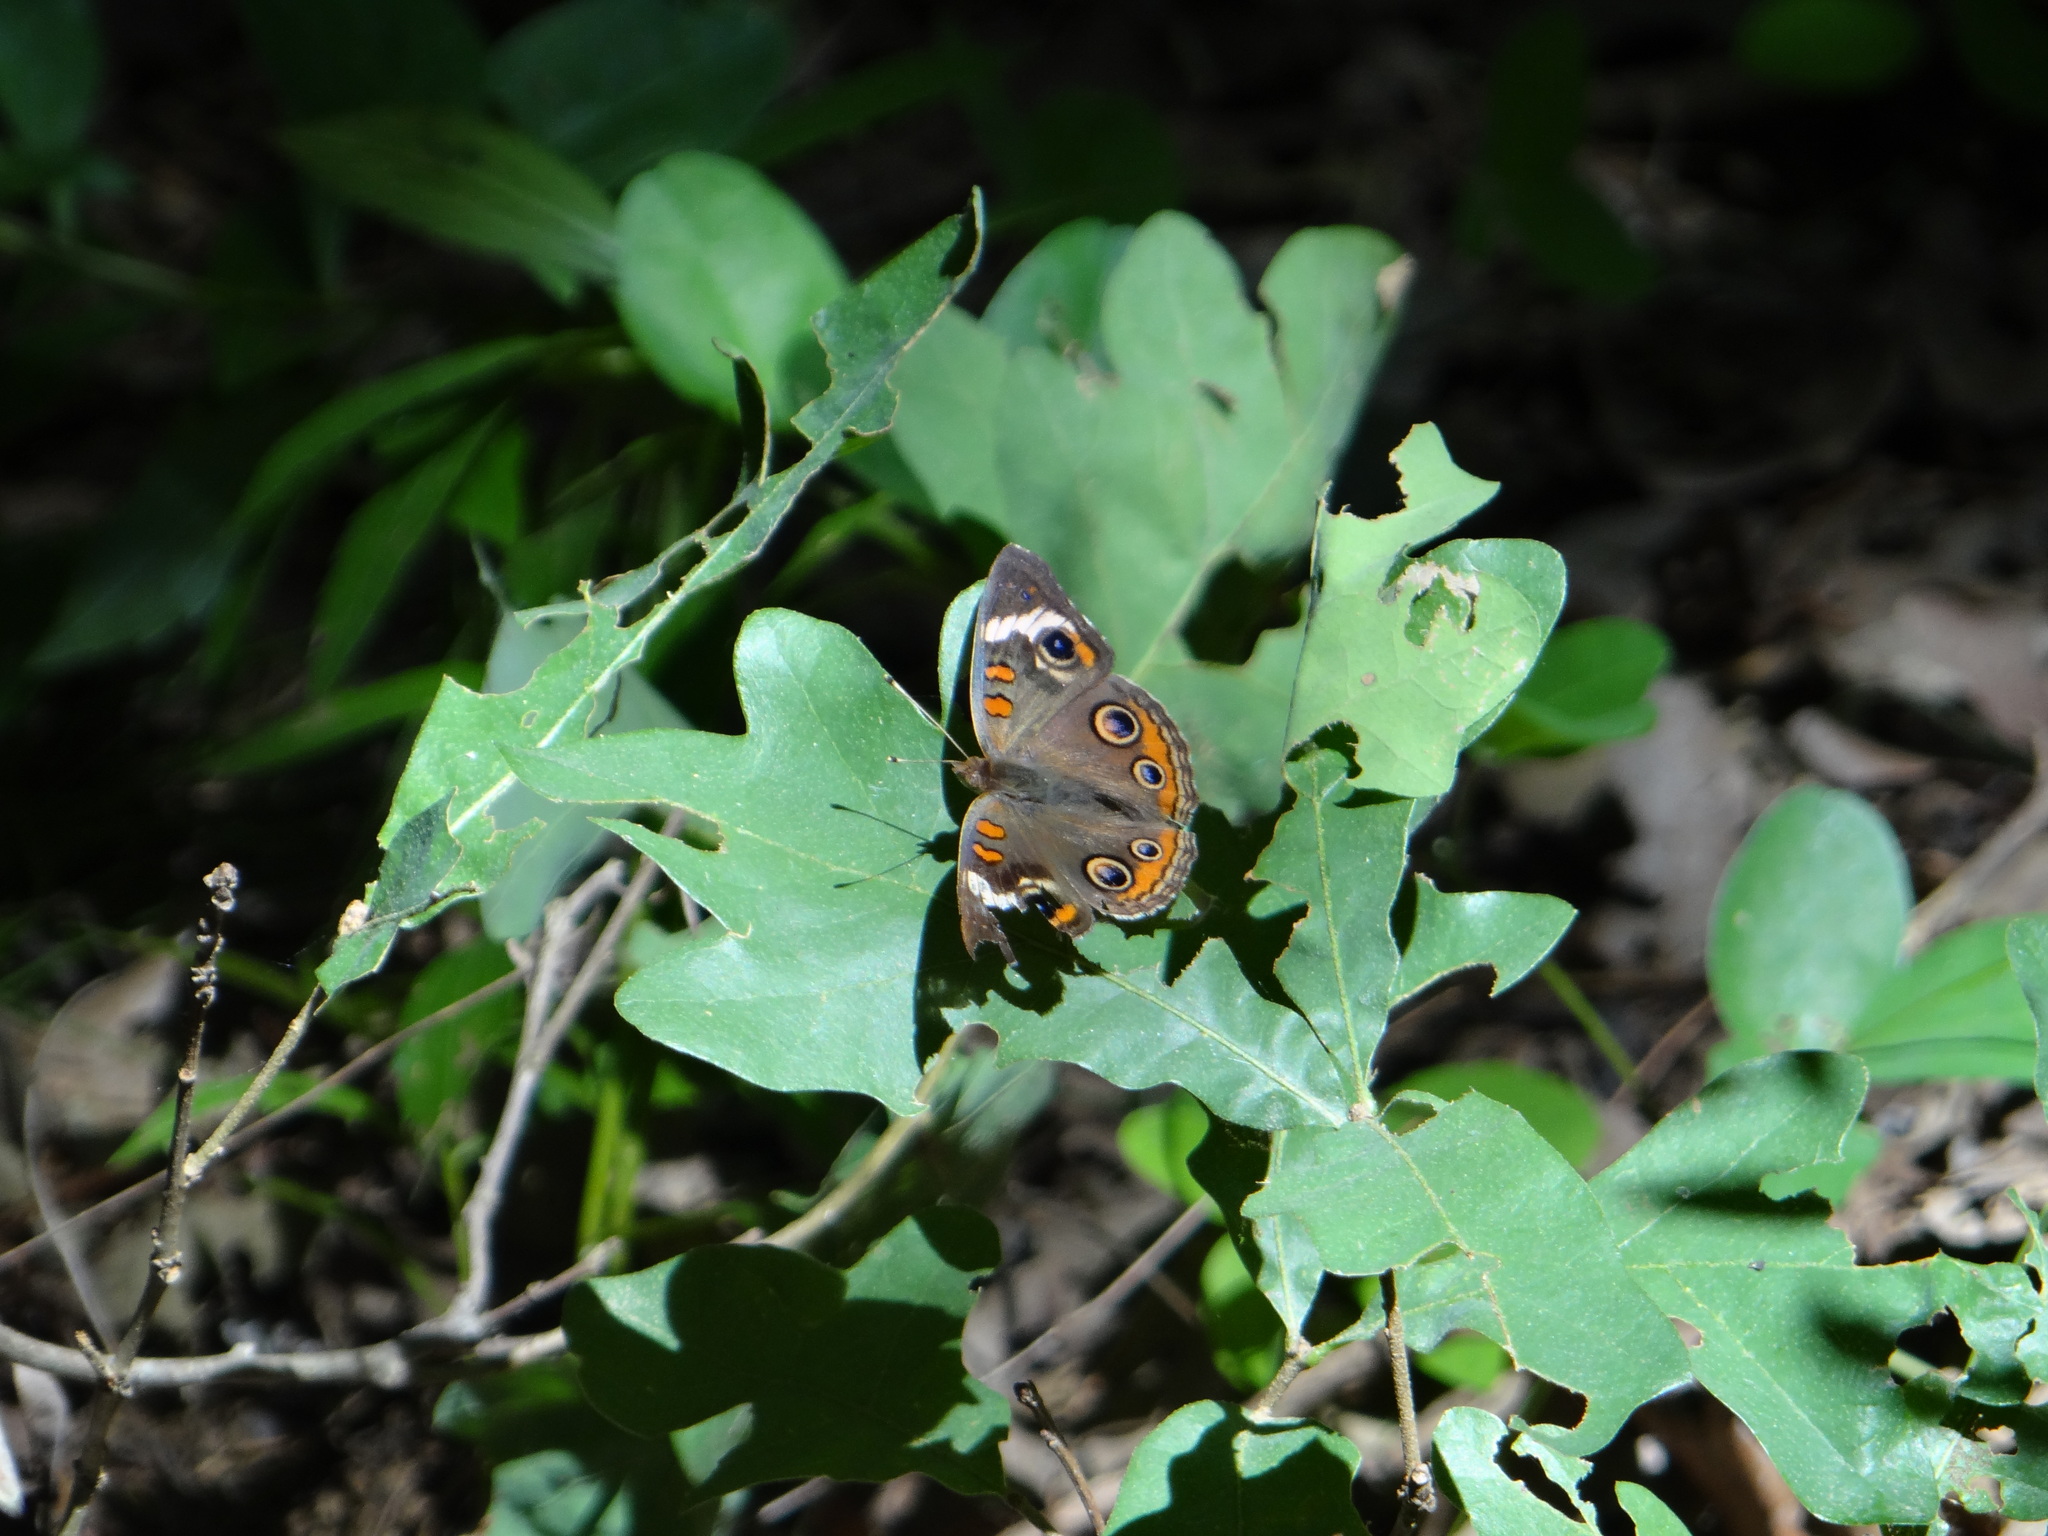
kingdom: Animalia
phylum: Arthropoda
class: Insecta
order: Lepidoptera
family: Nymphalidae
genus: Junonia
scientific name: Junonia coenia
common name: Common buckeye
